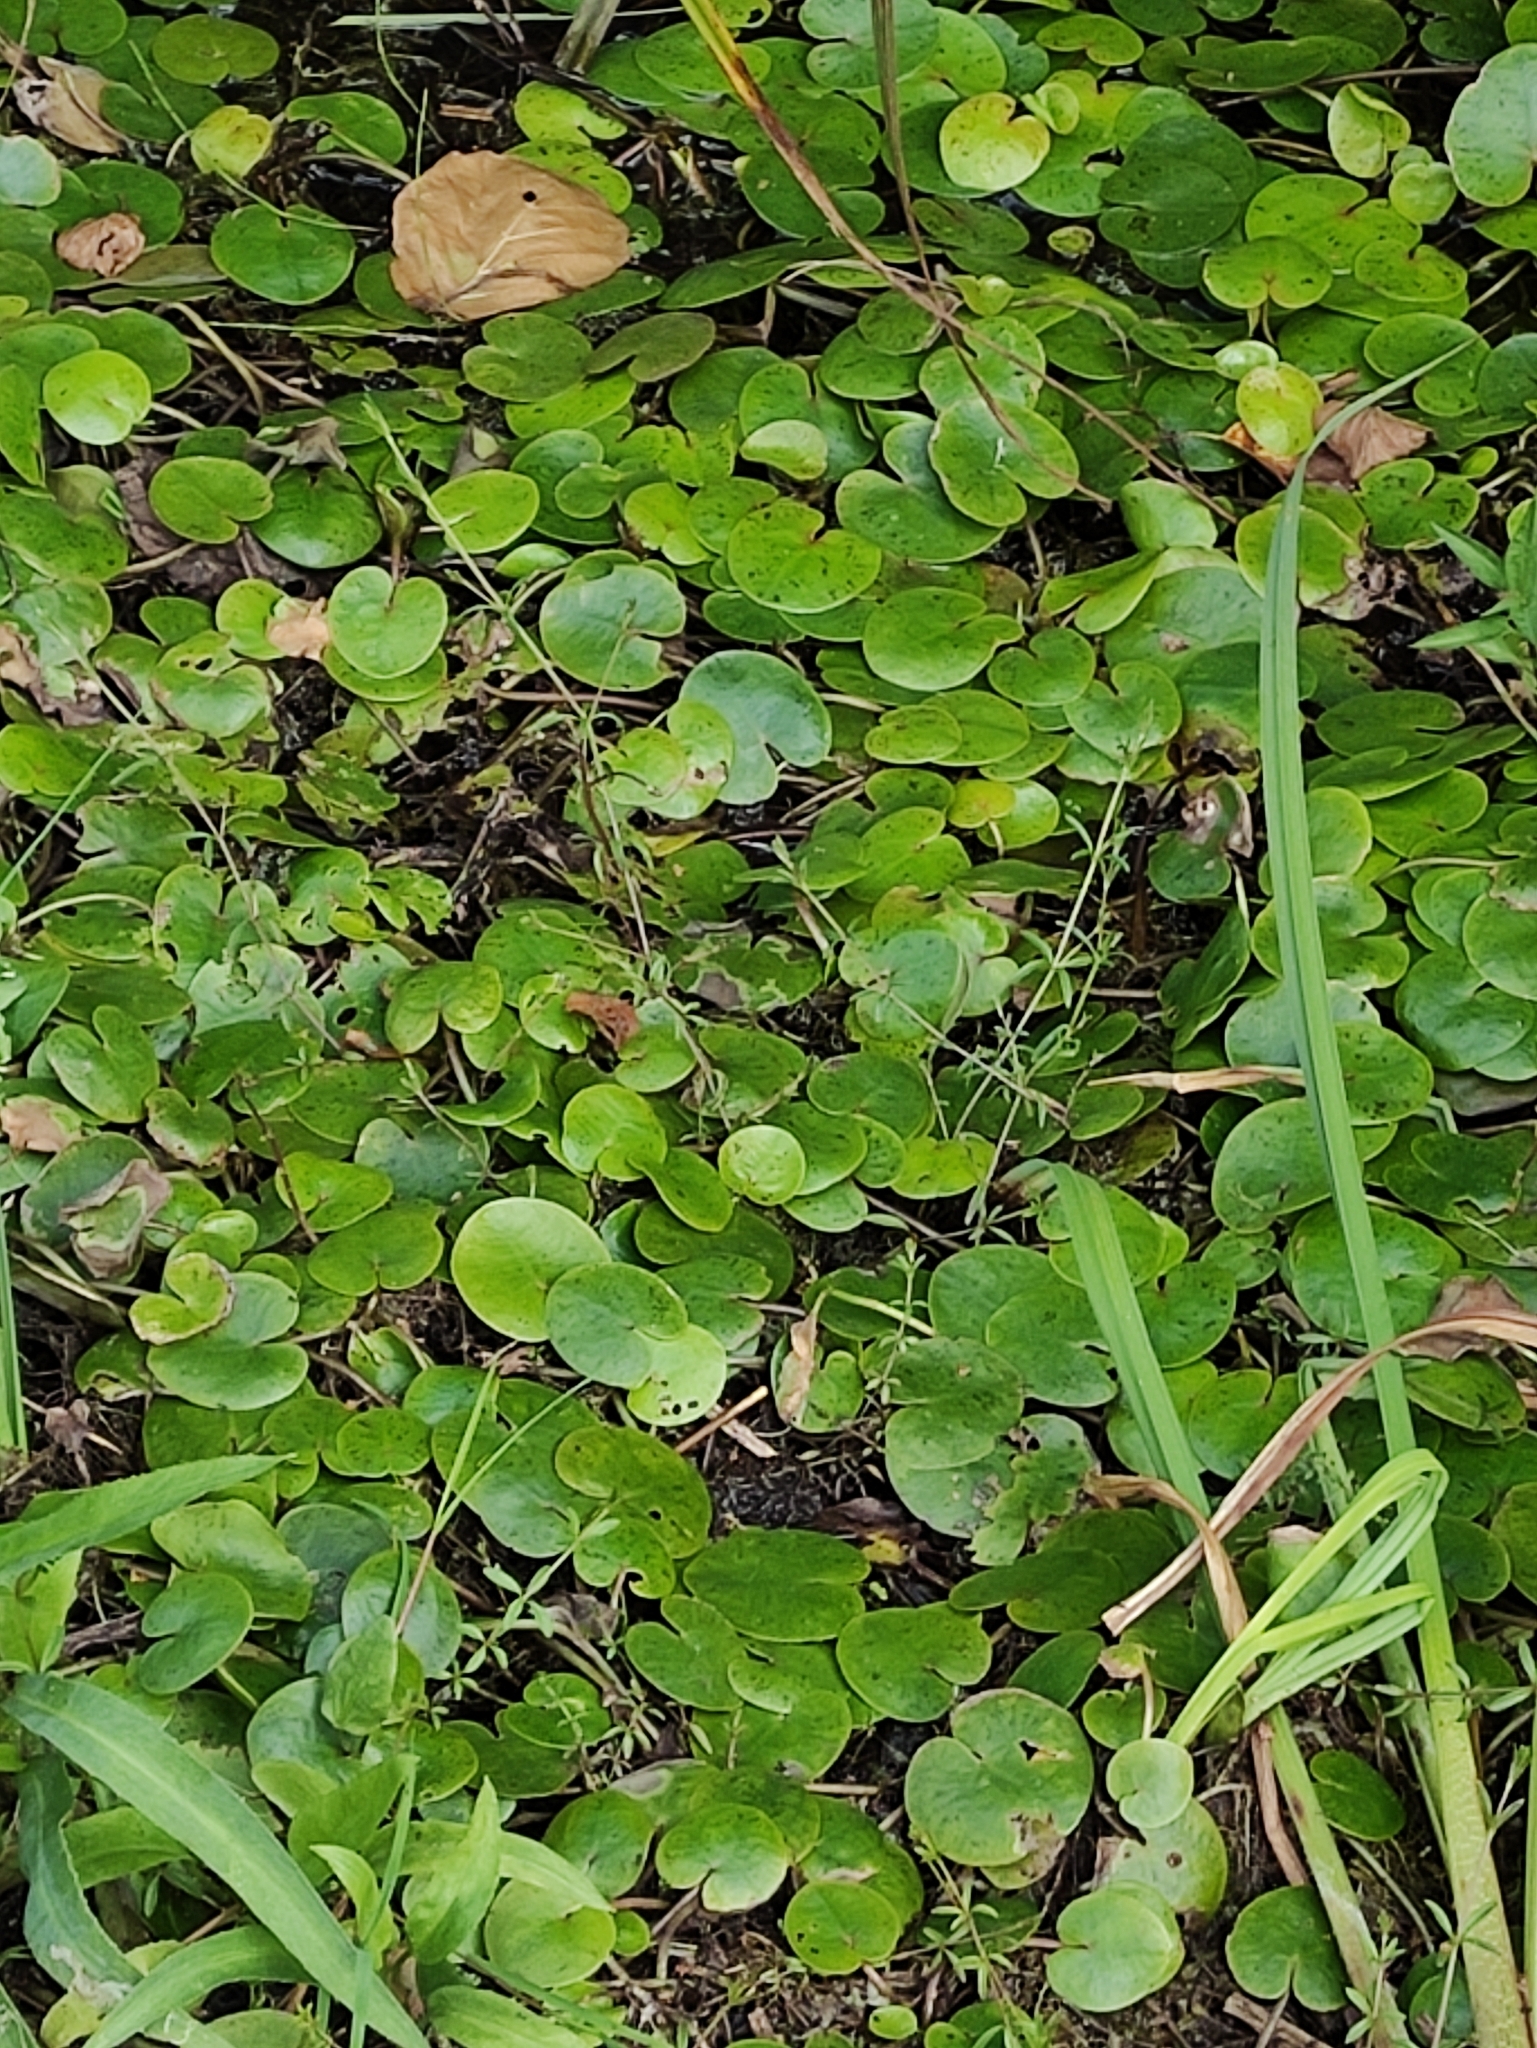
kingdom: Plantae
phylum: Tracheophyta
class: Liliopsida
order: Alismatales
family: Hydrocharitaceae
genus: Hydrocharis
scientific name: Hydrocharis morsus-ranae
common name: Frogbit
